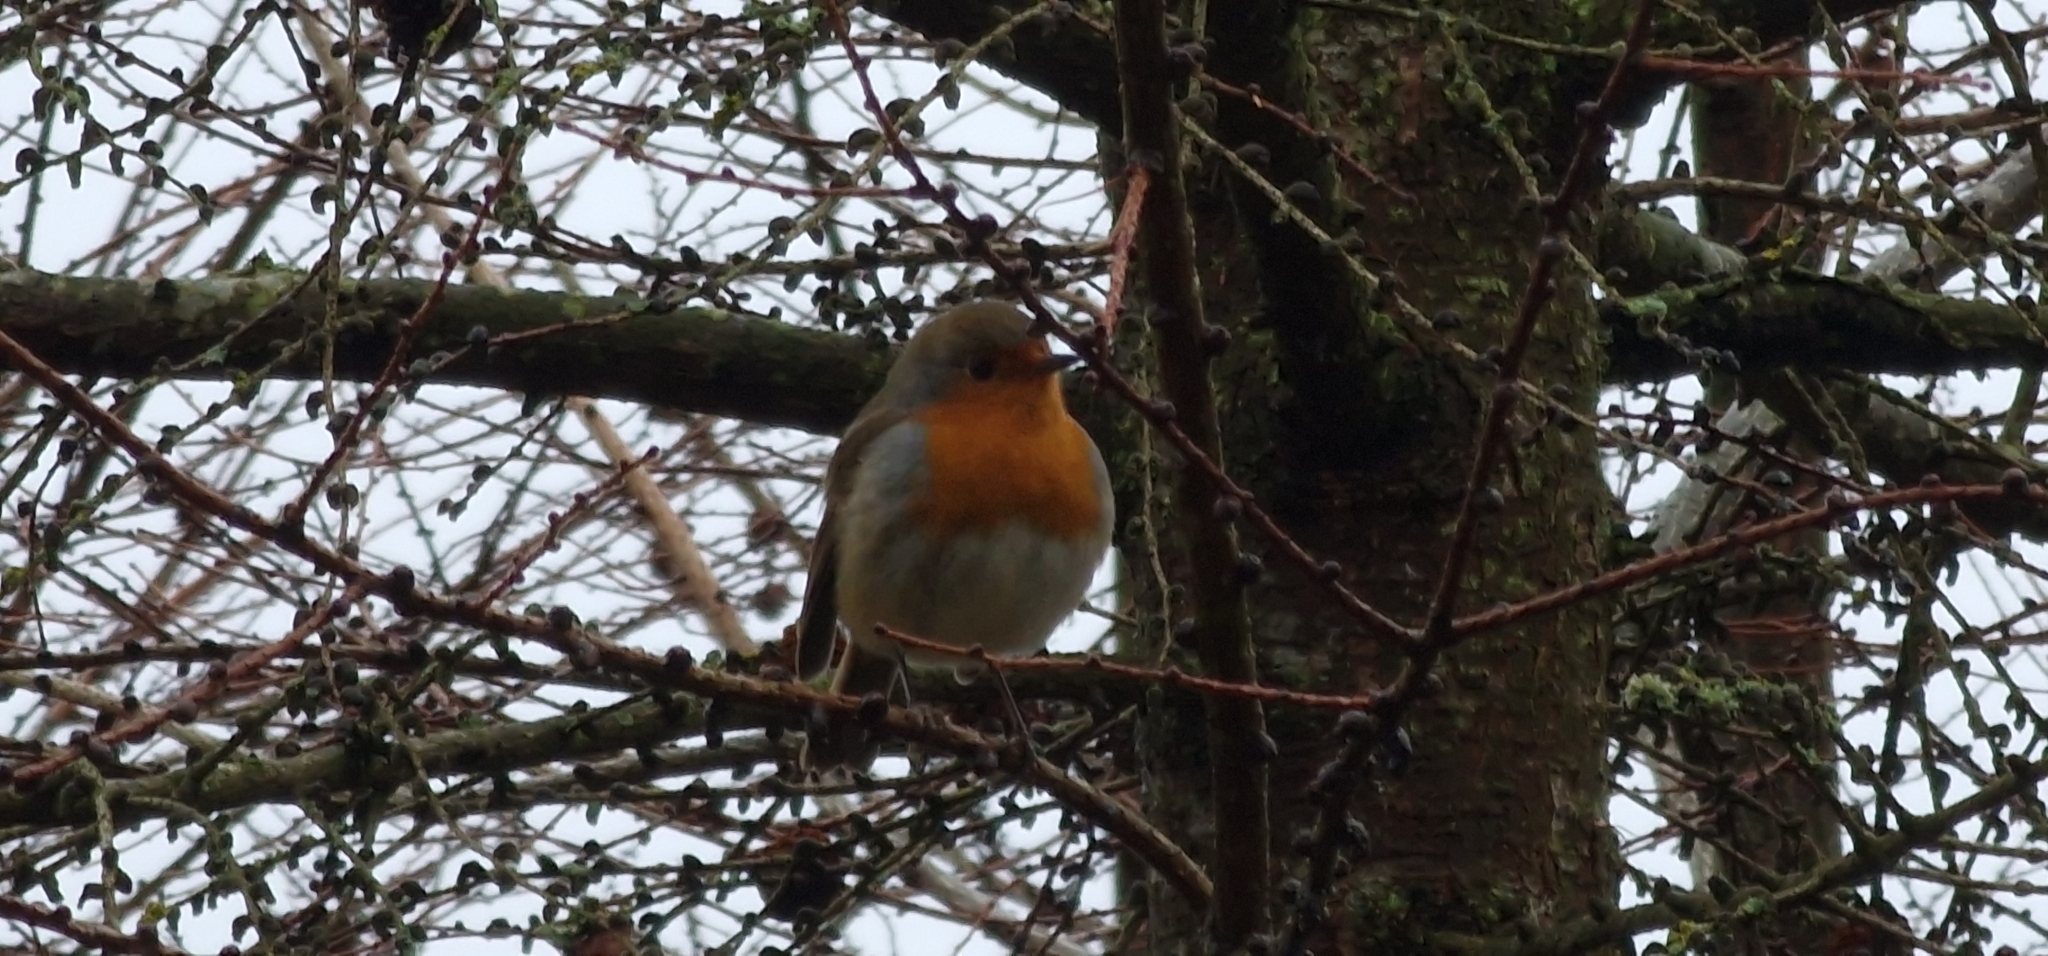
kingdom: Animalia
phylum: Chordata
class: Aves
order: Passeriformes
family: Muscicapidae
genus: Erithacus
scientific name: Erithacus rubecula
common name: European robin
